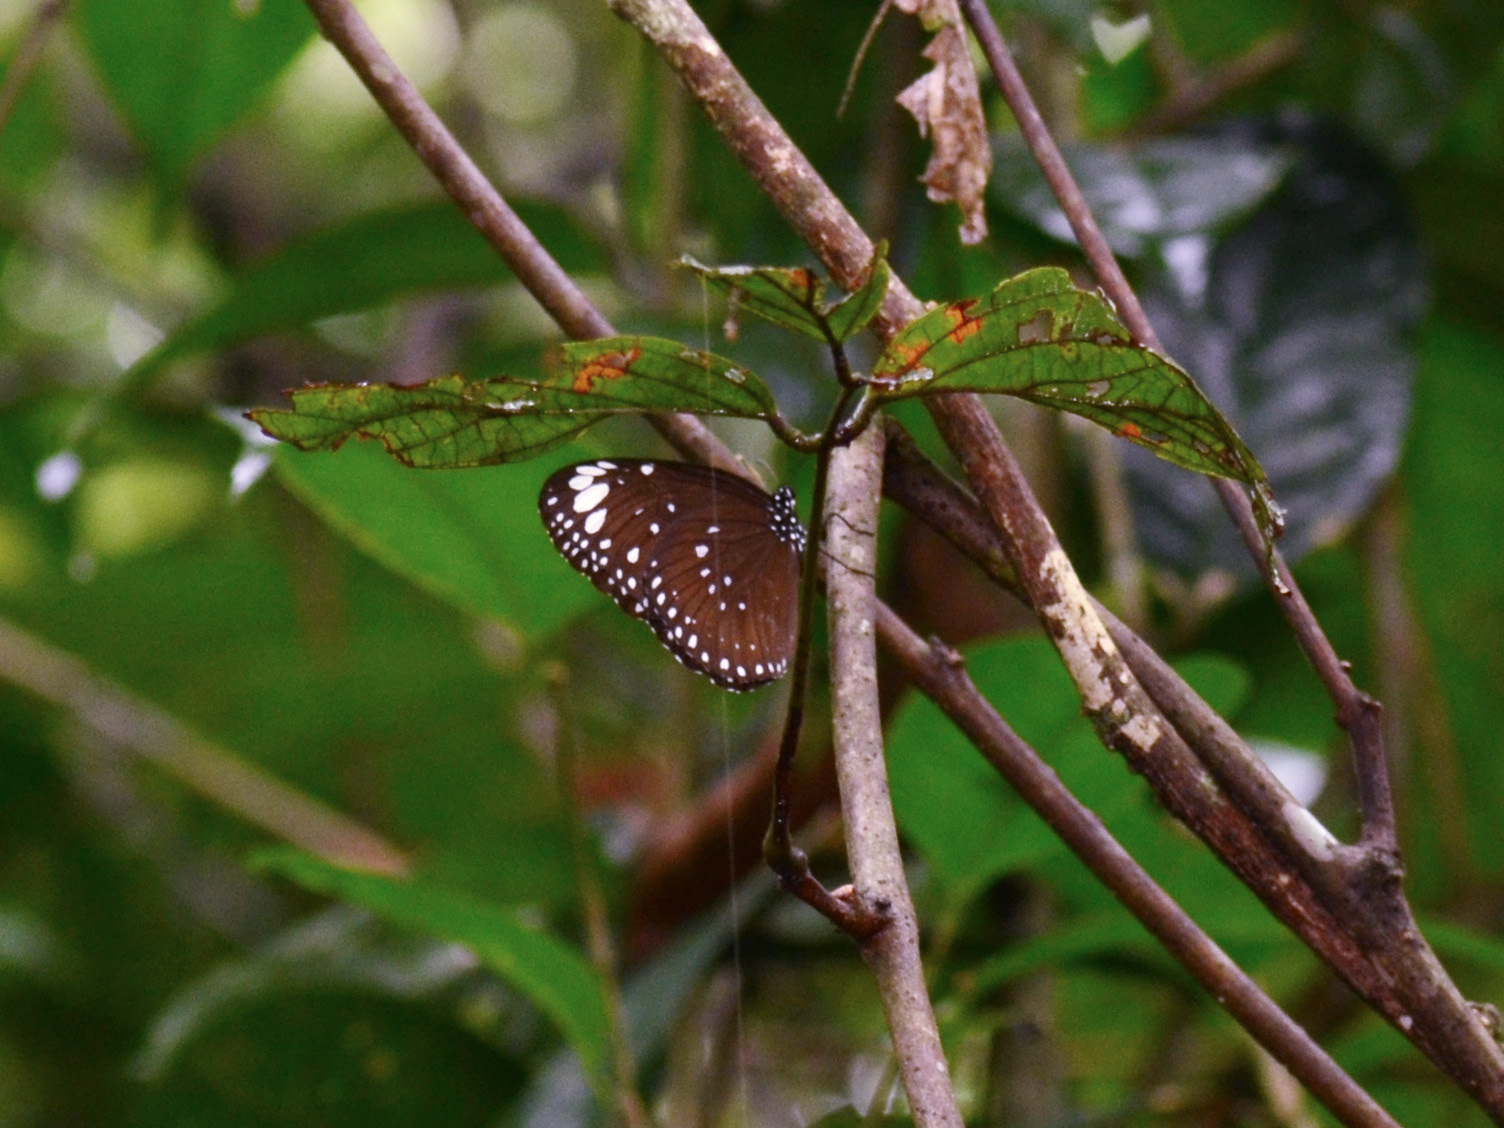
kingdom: Animalia
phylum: Arthropoda
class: Insecta
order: Lepidoptera
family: Nymphalidae
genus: Euploea
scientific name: Euploea crameri
